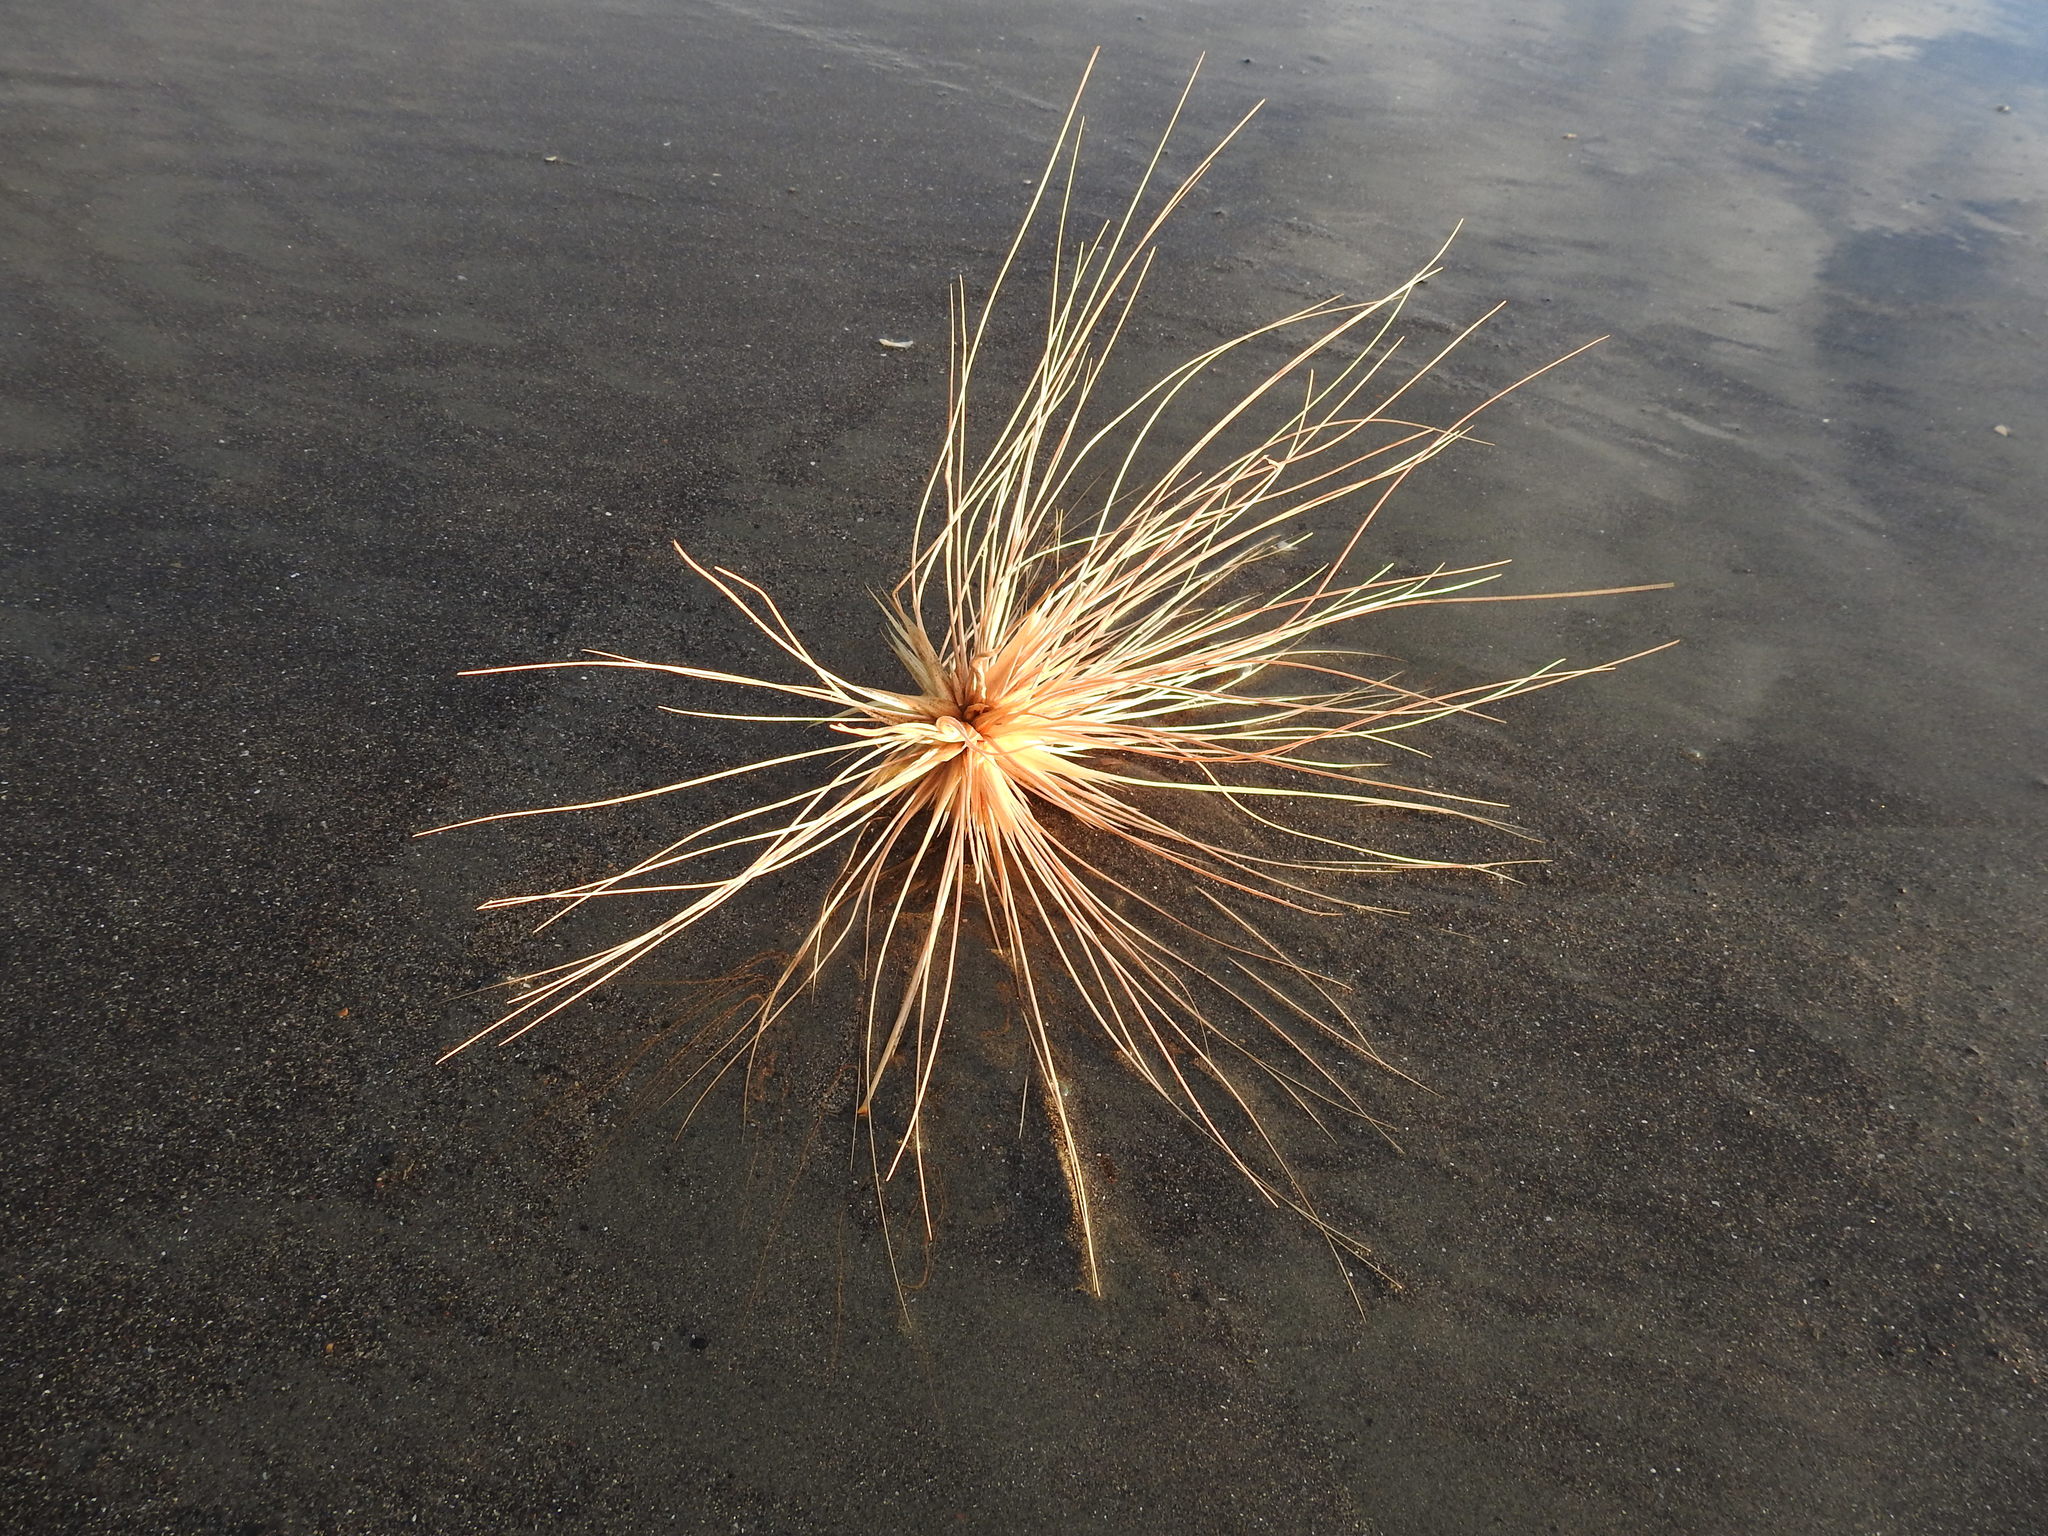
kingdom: Plantae
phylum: Tracheophyta
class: Liliopsida
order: Poales
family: Poaceae
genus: Spinifex
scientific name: Spinifex sericeus
